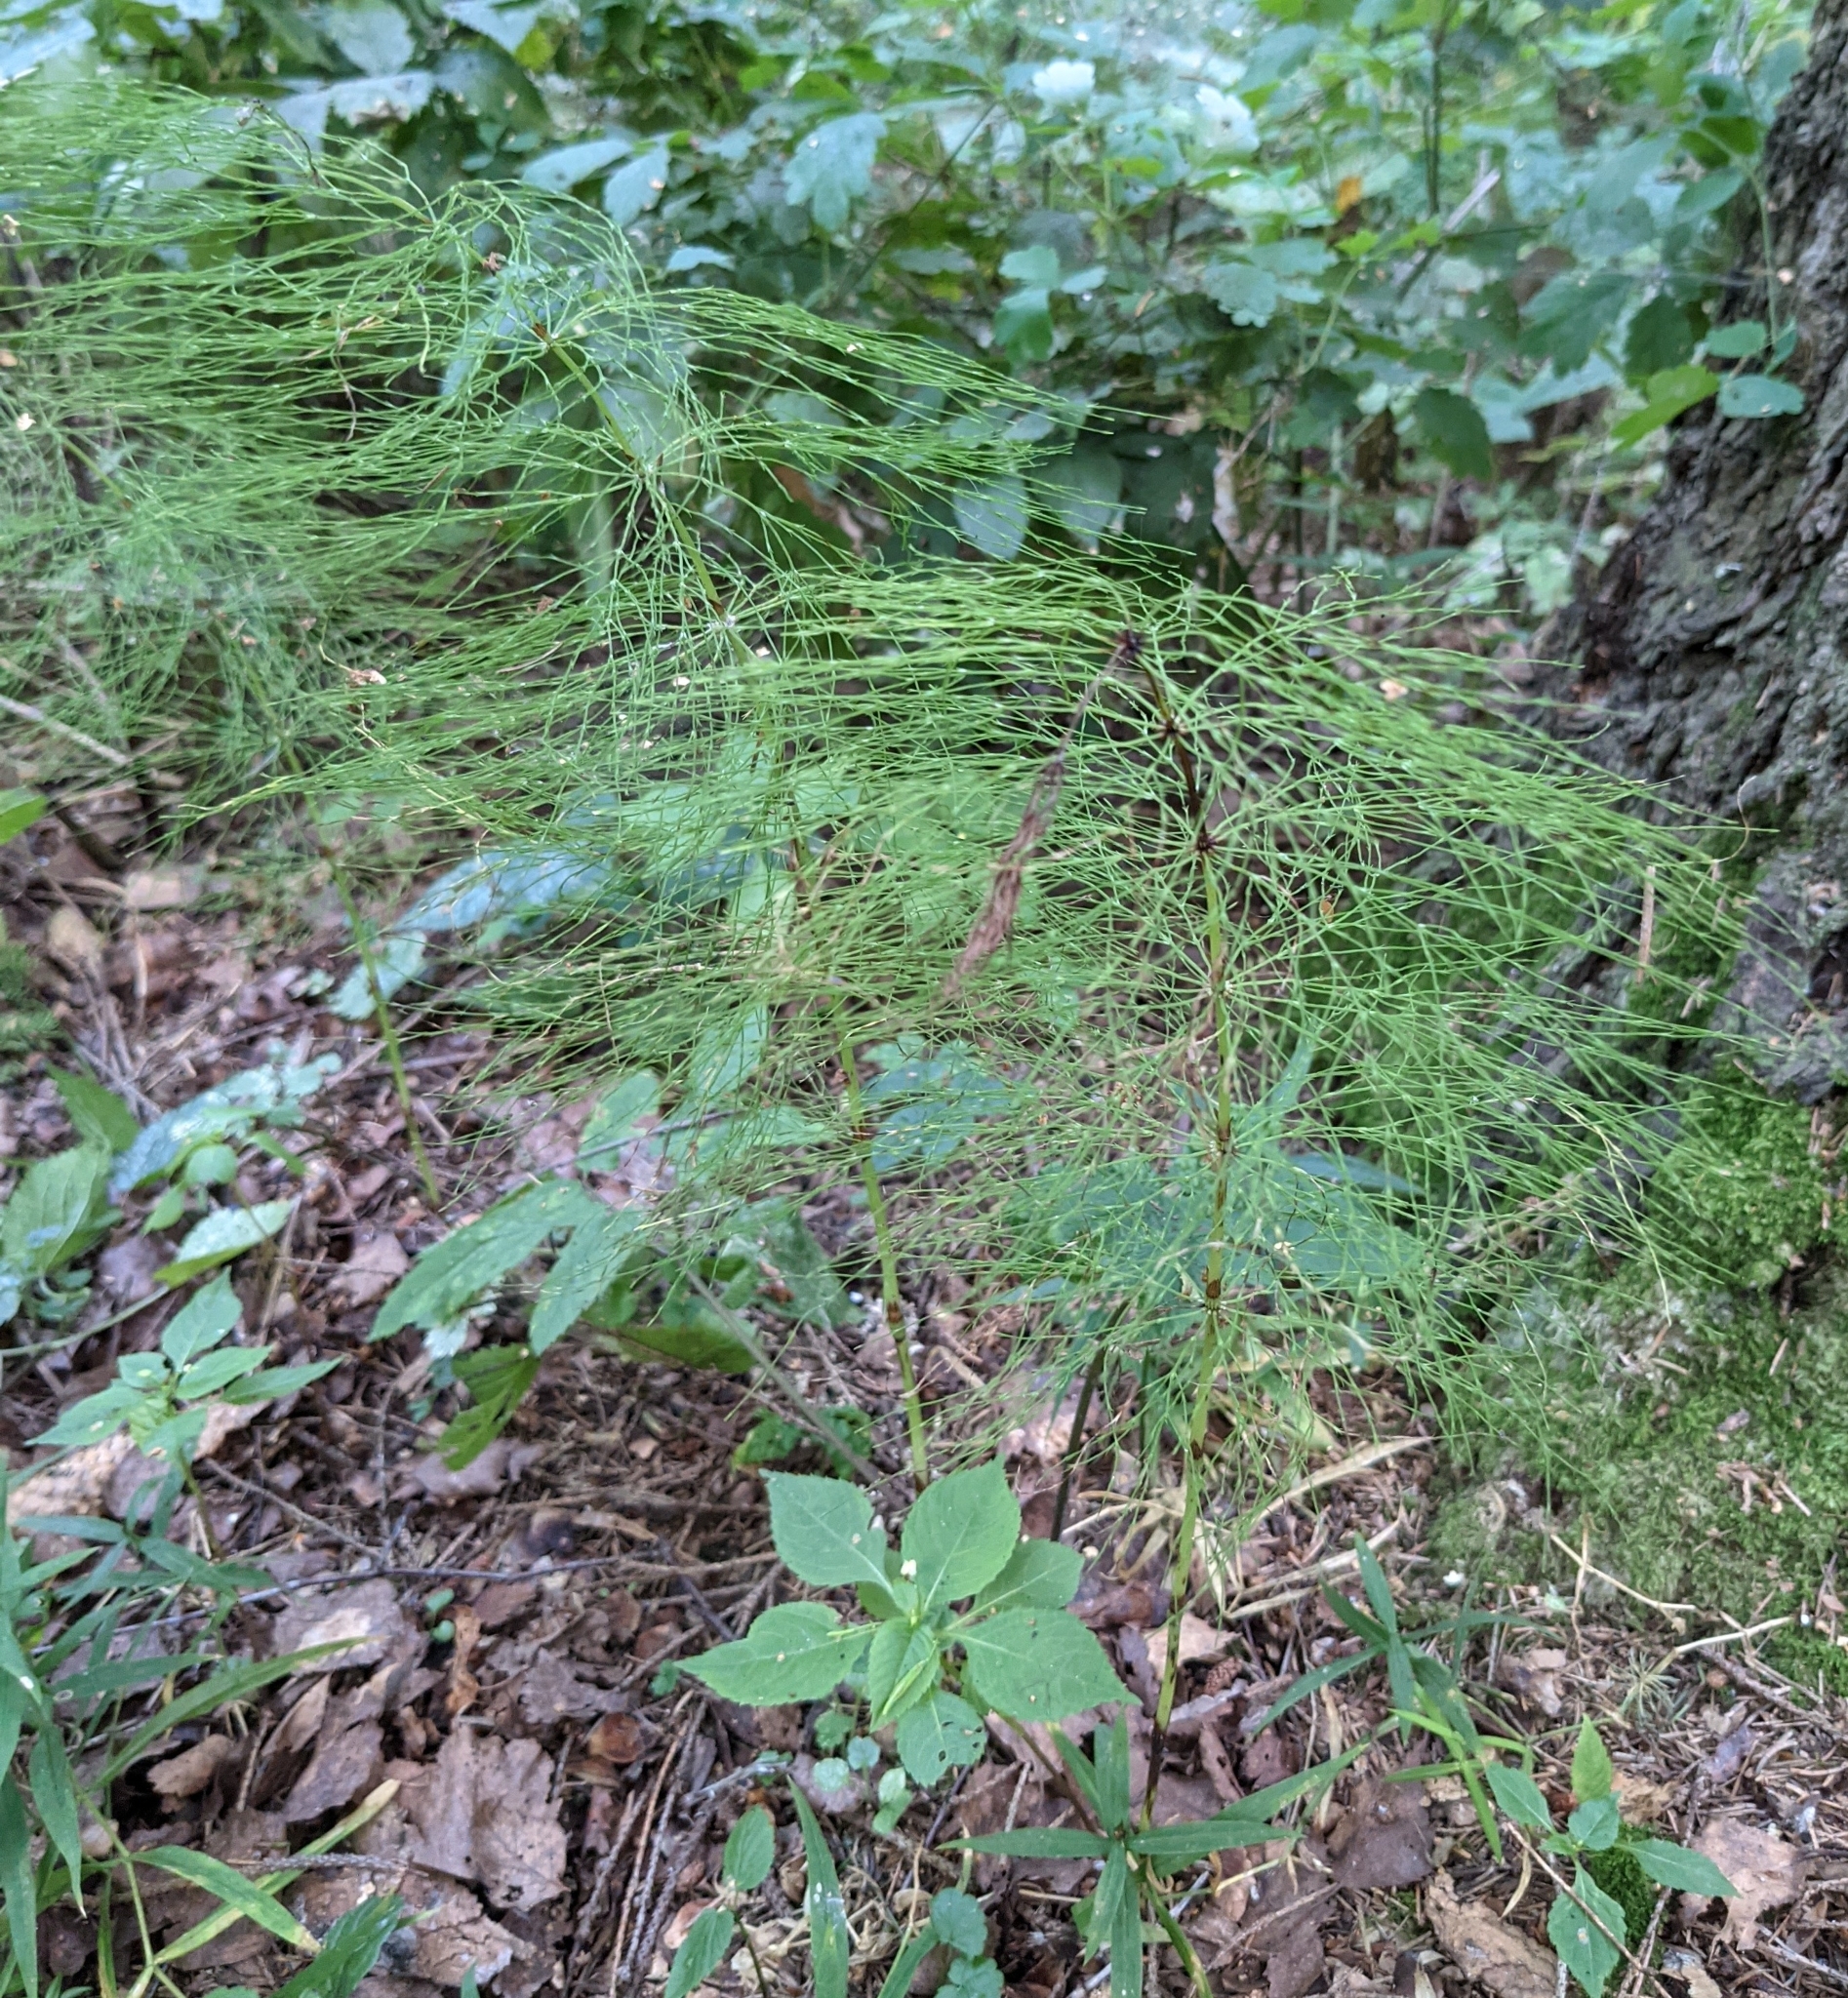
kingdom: Plantae
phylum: Tracheophyta
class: Polypodiopsida
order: Equisetales
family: Equisetaceae
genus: Equisetum
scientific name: Equisetum sylvaticum
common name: Wood horsetail
